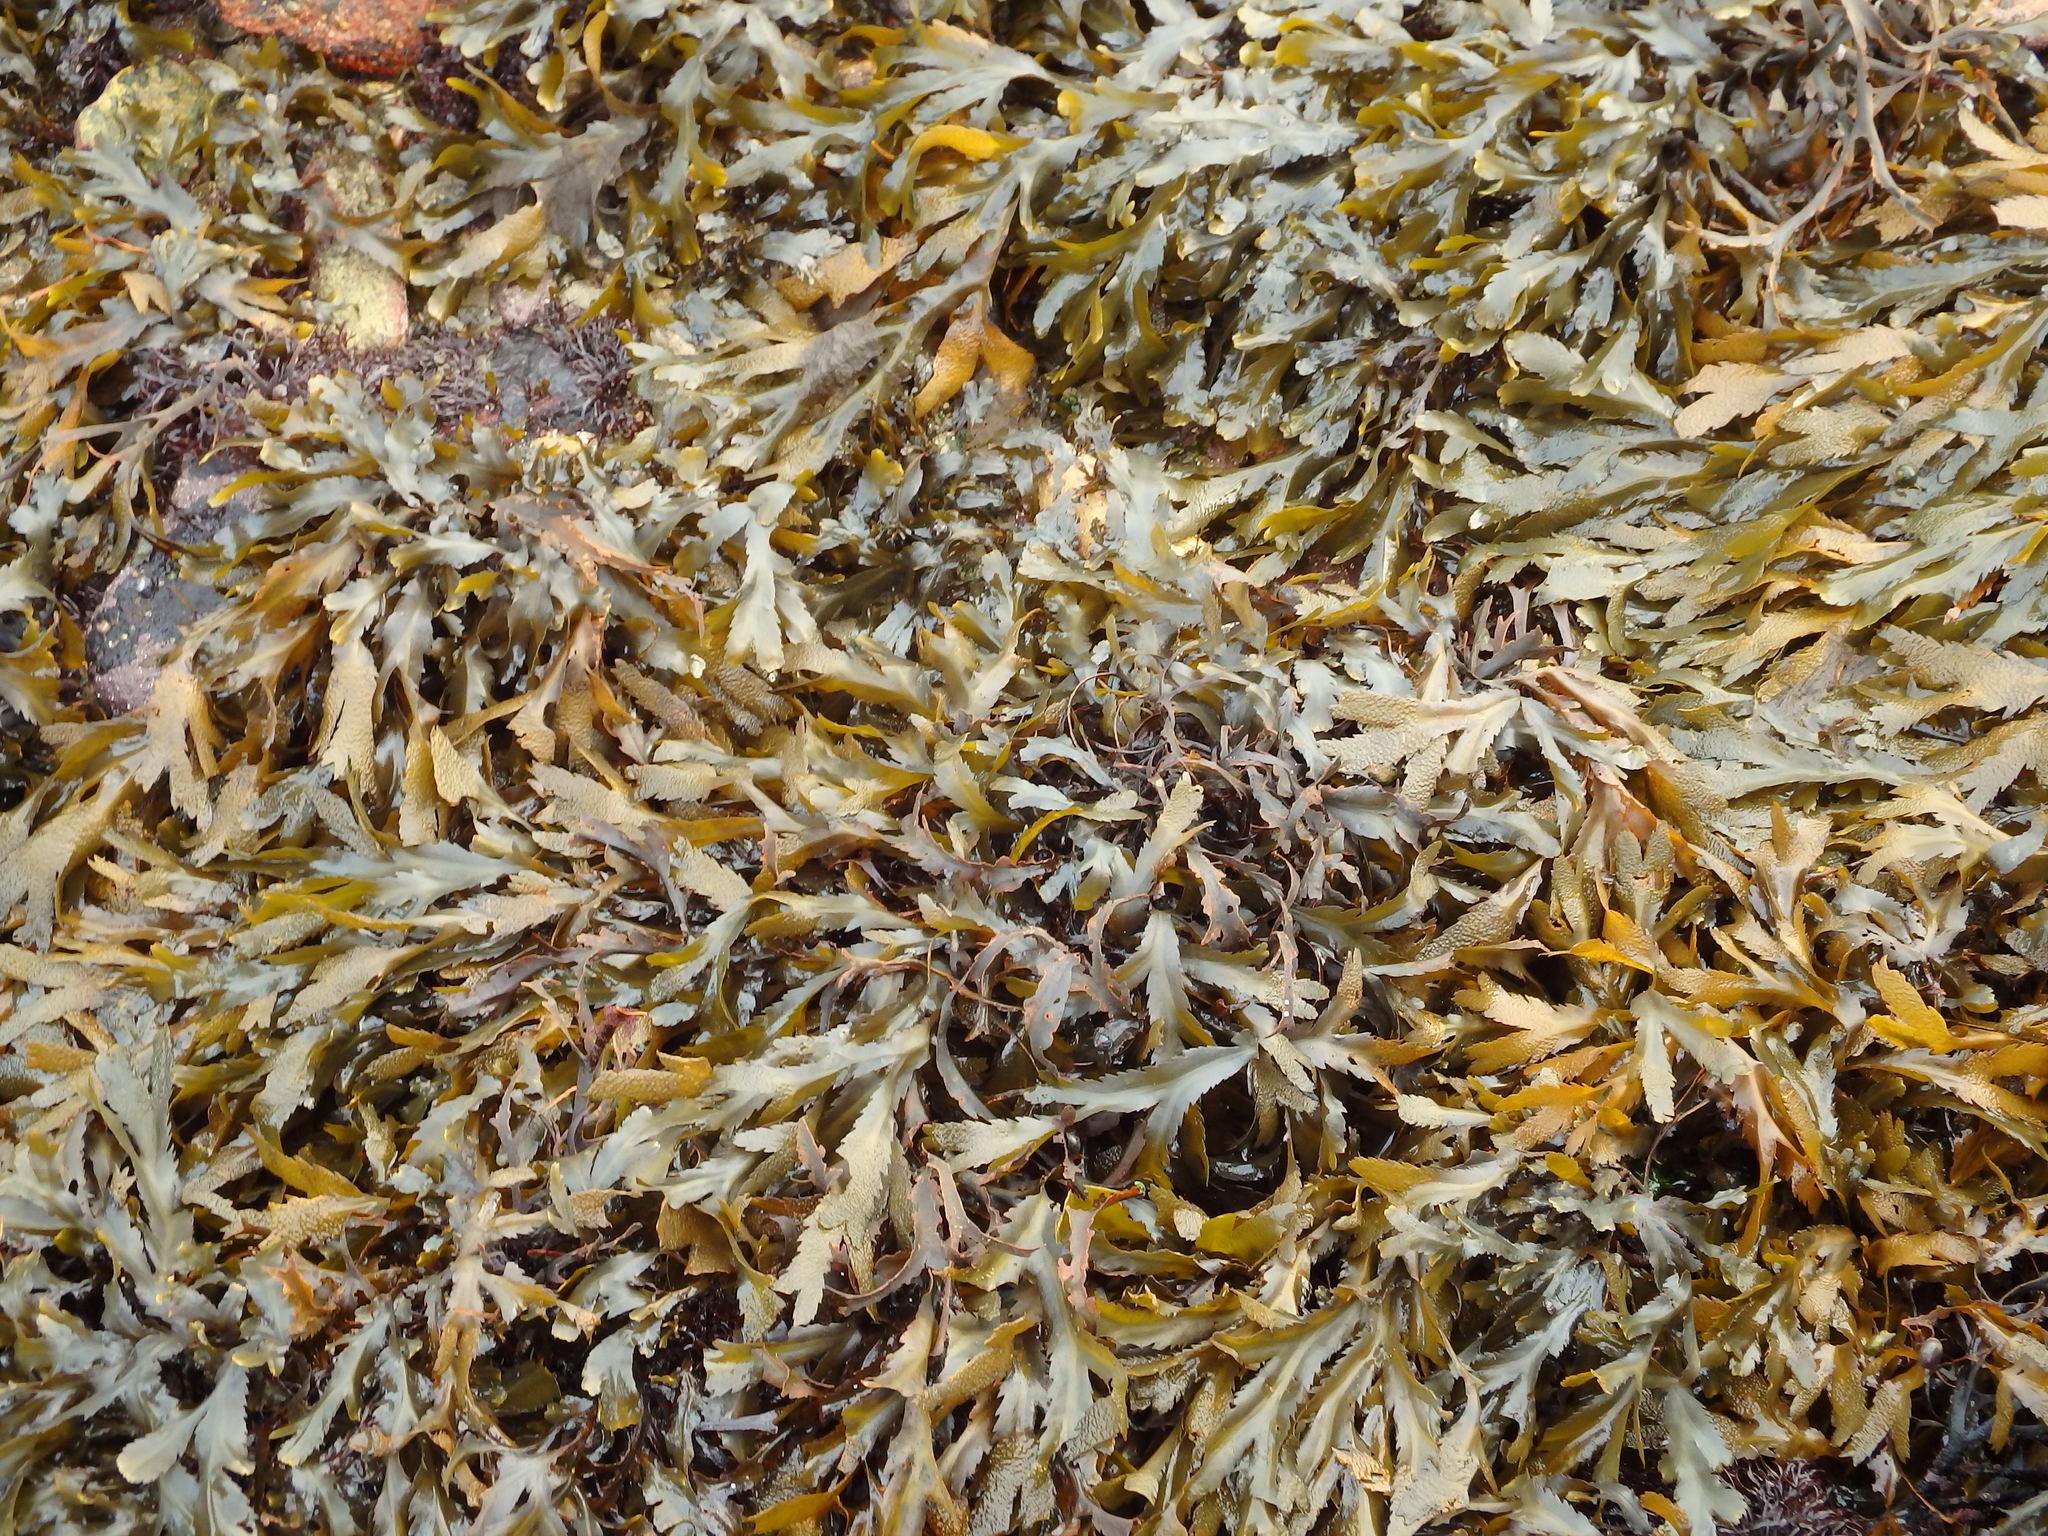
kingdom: Chromista
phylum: Ochrophyta
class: Phaeophyceae
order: Fucales
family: Fucaceae
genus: Fucus
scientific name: Fucus serratus
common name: Toothed wrack
